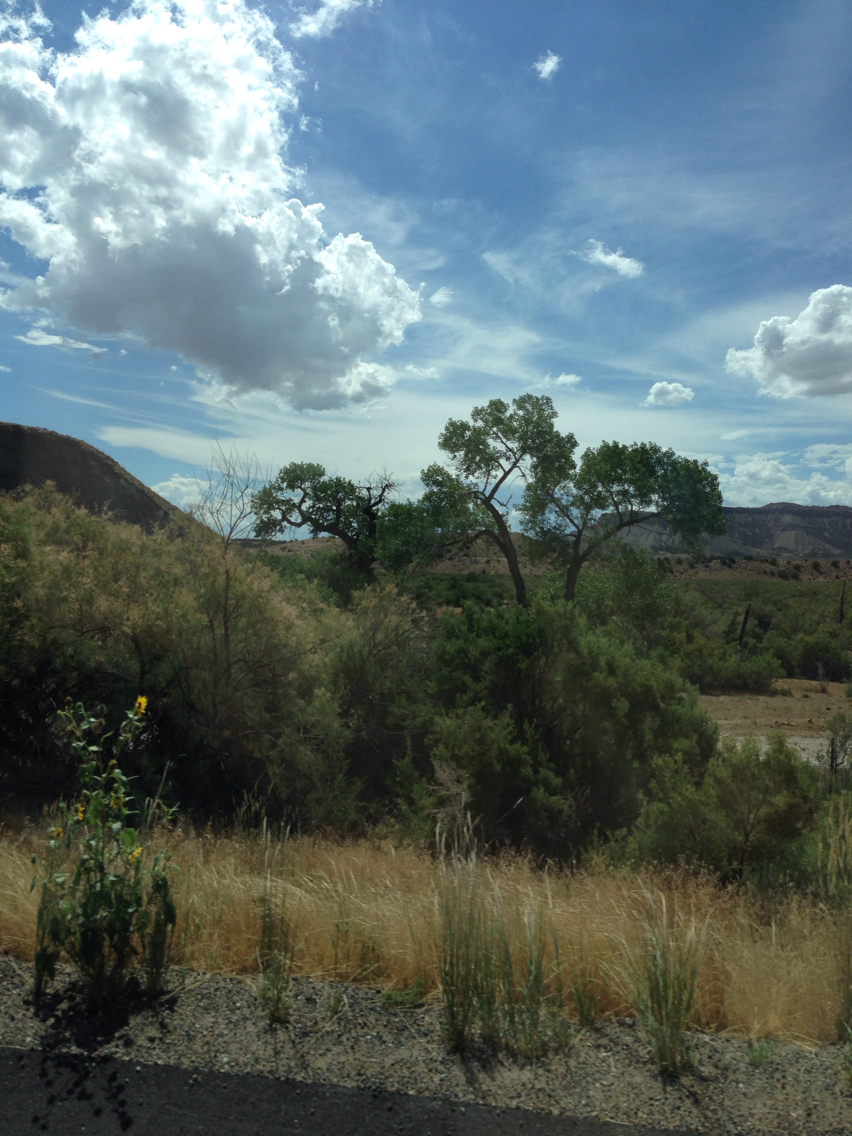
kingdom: Plantae
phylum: Tracheophyta
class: Magnoliopsida
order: Caryophyllales
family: Tamaricaceae
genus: Tamarix
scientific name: Tamarix ramosissima
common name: Pink tamarisk
